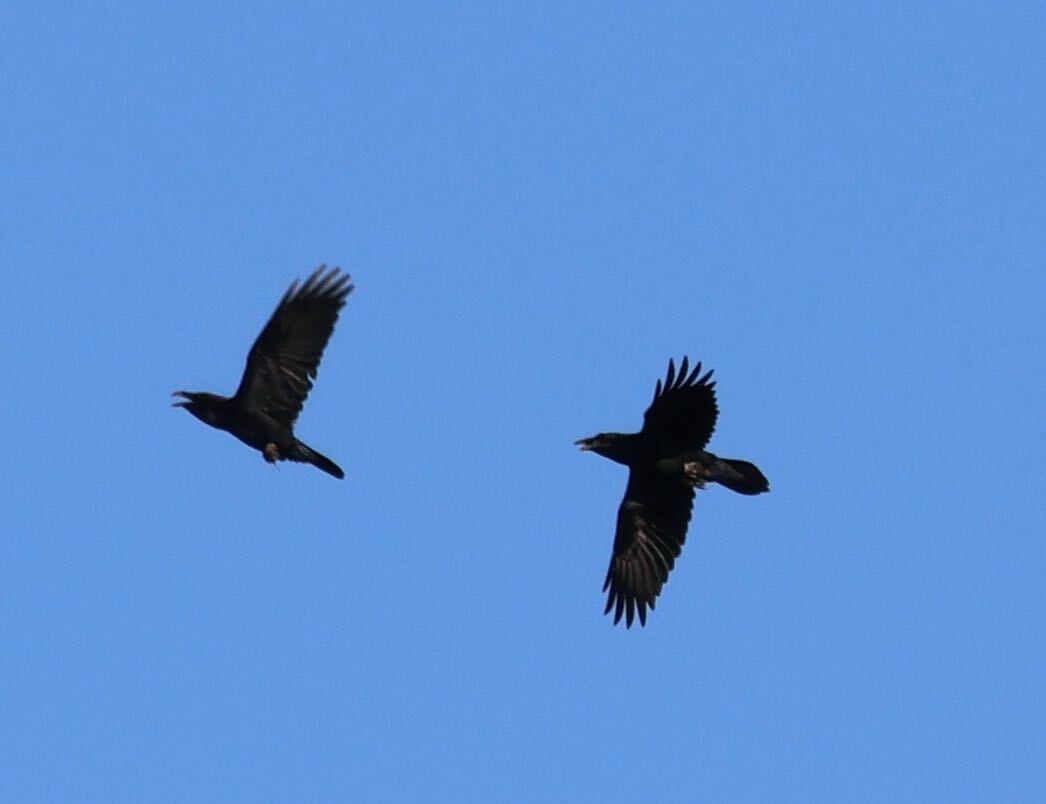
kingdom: Animalia
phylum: Chordata
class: Aves
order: Passeriformes
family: Corvidae
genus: Corvus
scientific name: Corvus corax
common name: Common raven
